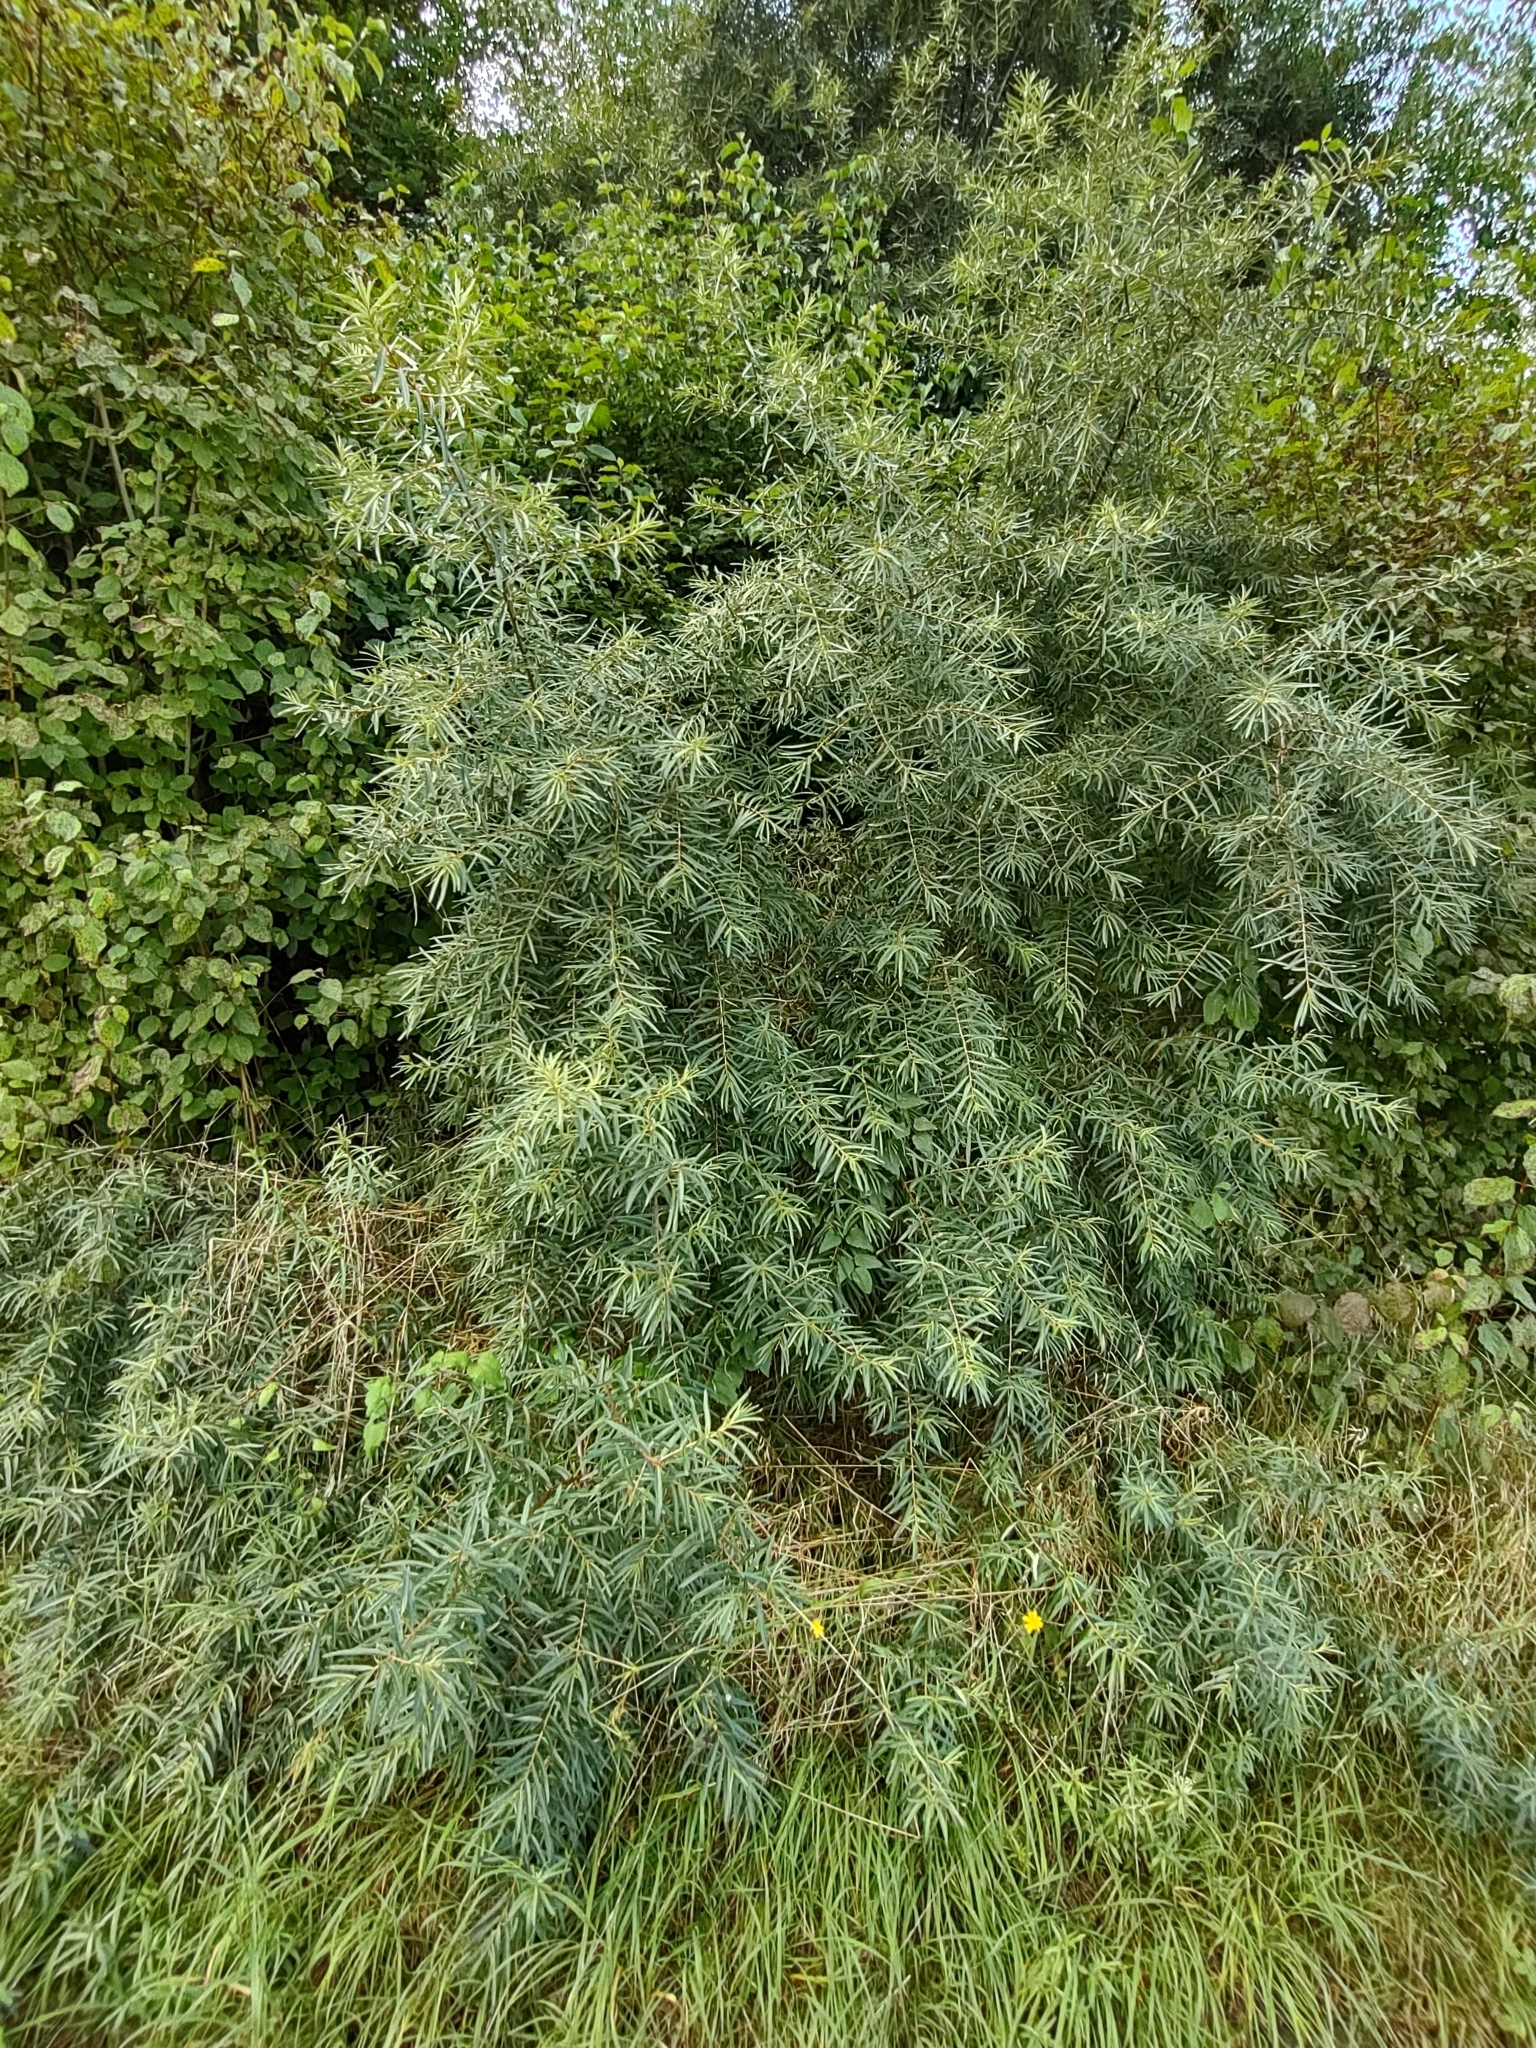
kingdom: Plantae
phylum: Tracheophyta
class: Magnoliopsida
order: Rosales
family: Elaeagnaceae
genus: Hippophae
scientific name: Hippophae rhamnoides
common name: Sea-buckthorn
